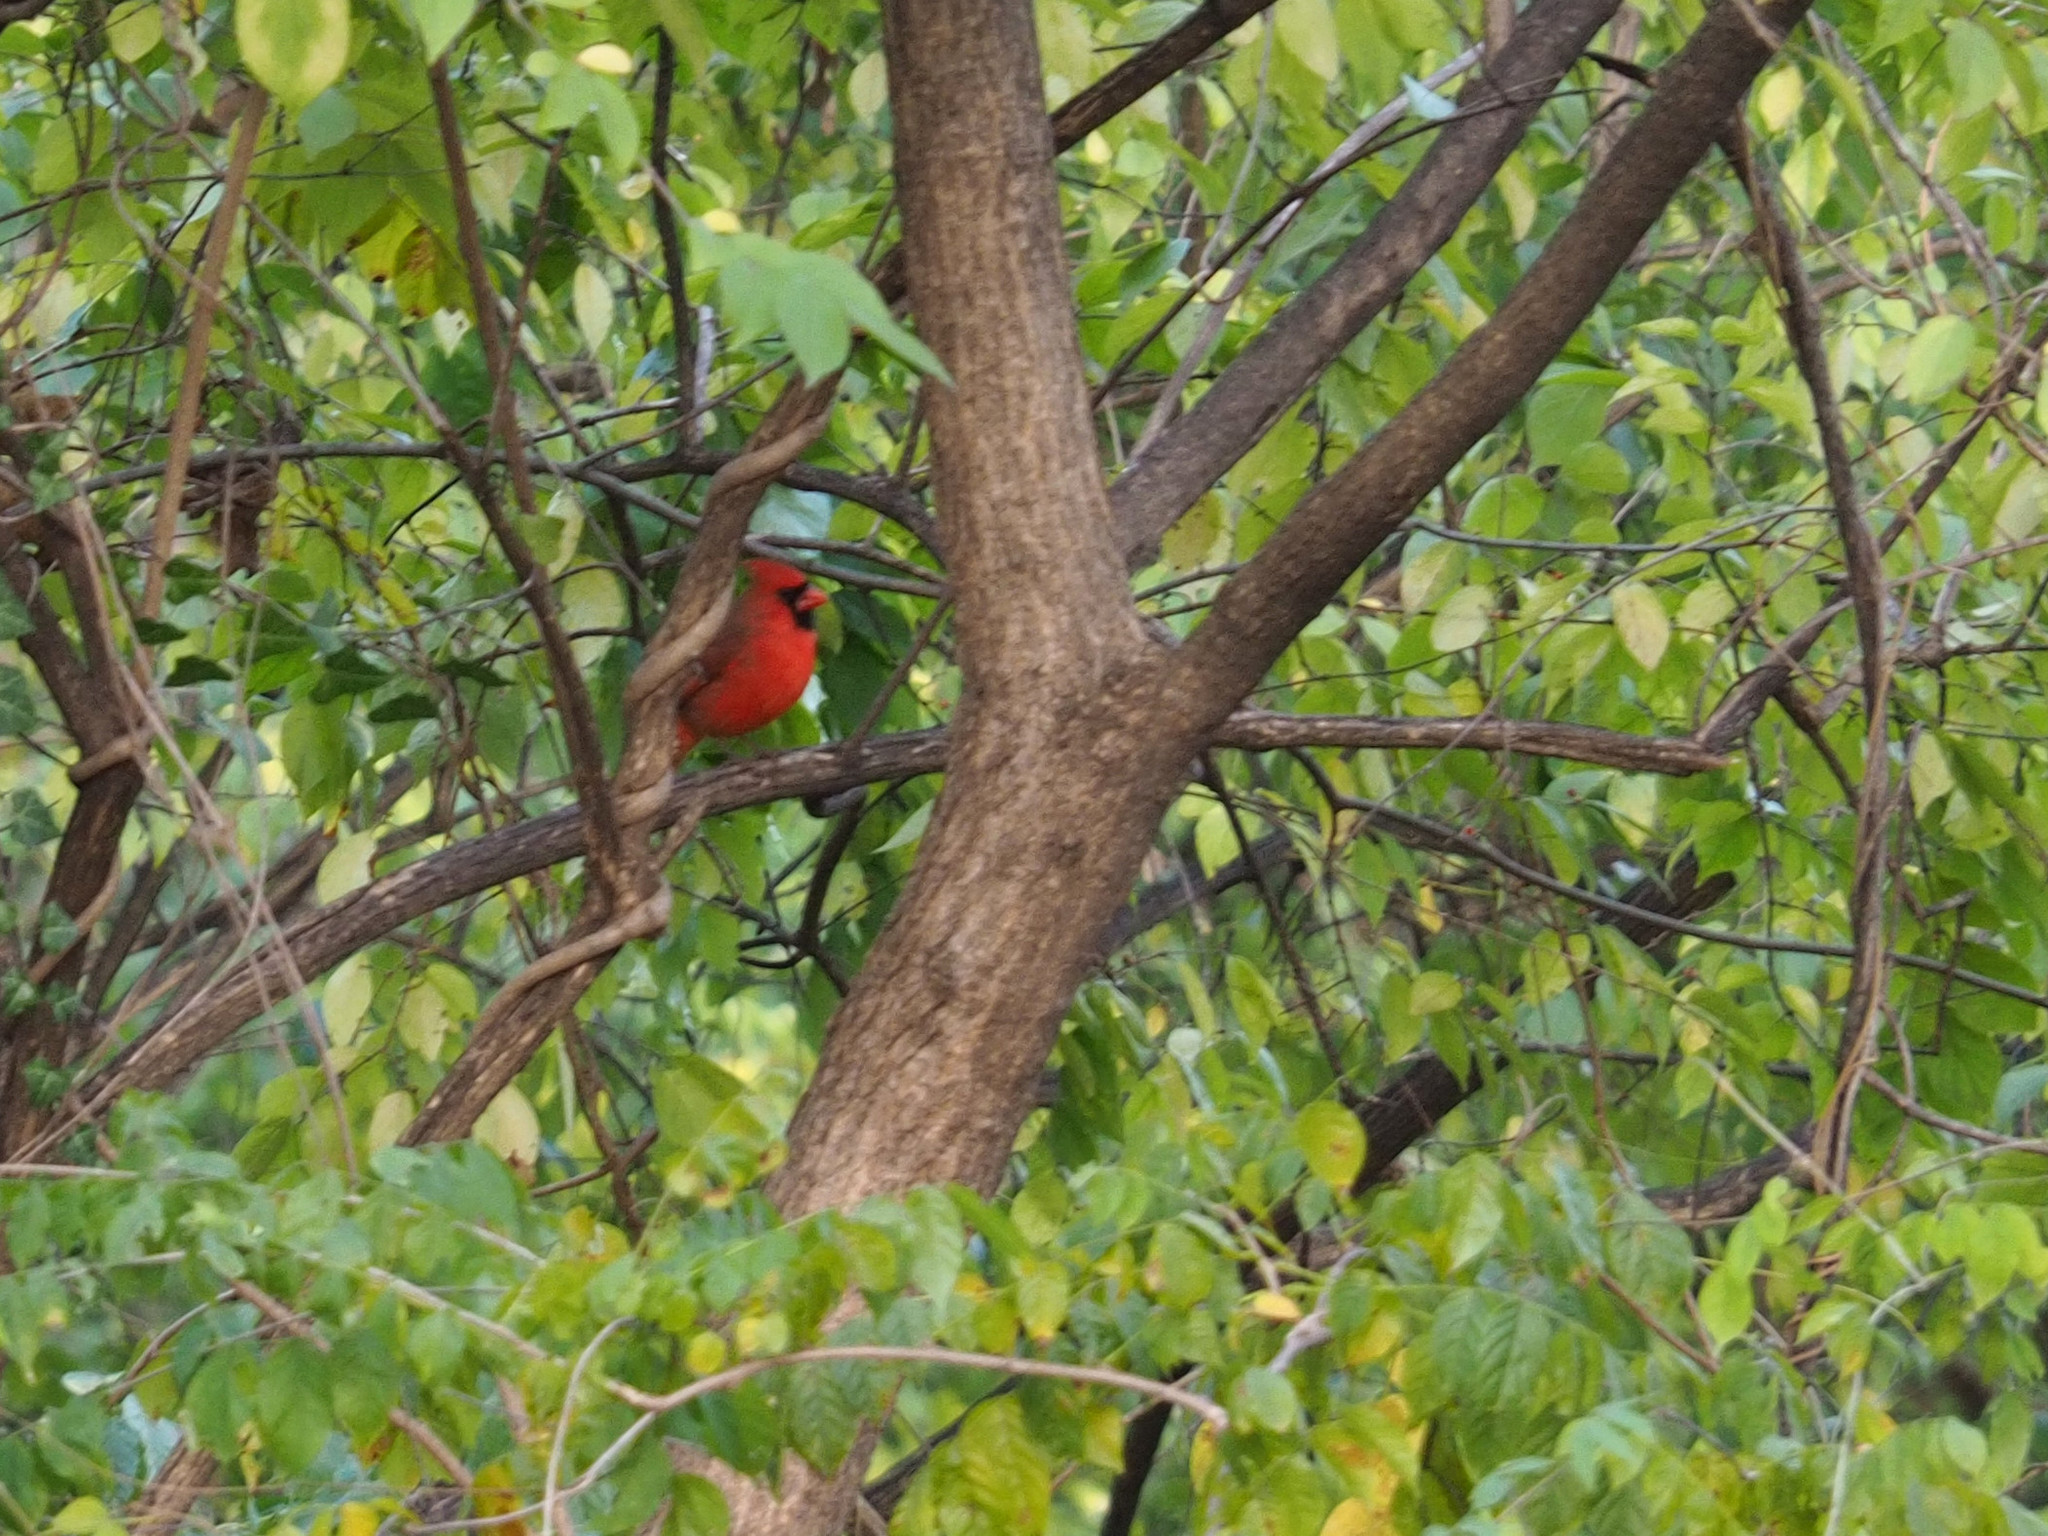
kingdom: Animalia
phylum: Chordata
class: Aves
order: Passeriformes
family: Cardinalidae
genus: Cardinalis
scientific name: Cardinalis cardinalis
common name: Northern cardinal
